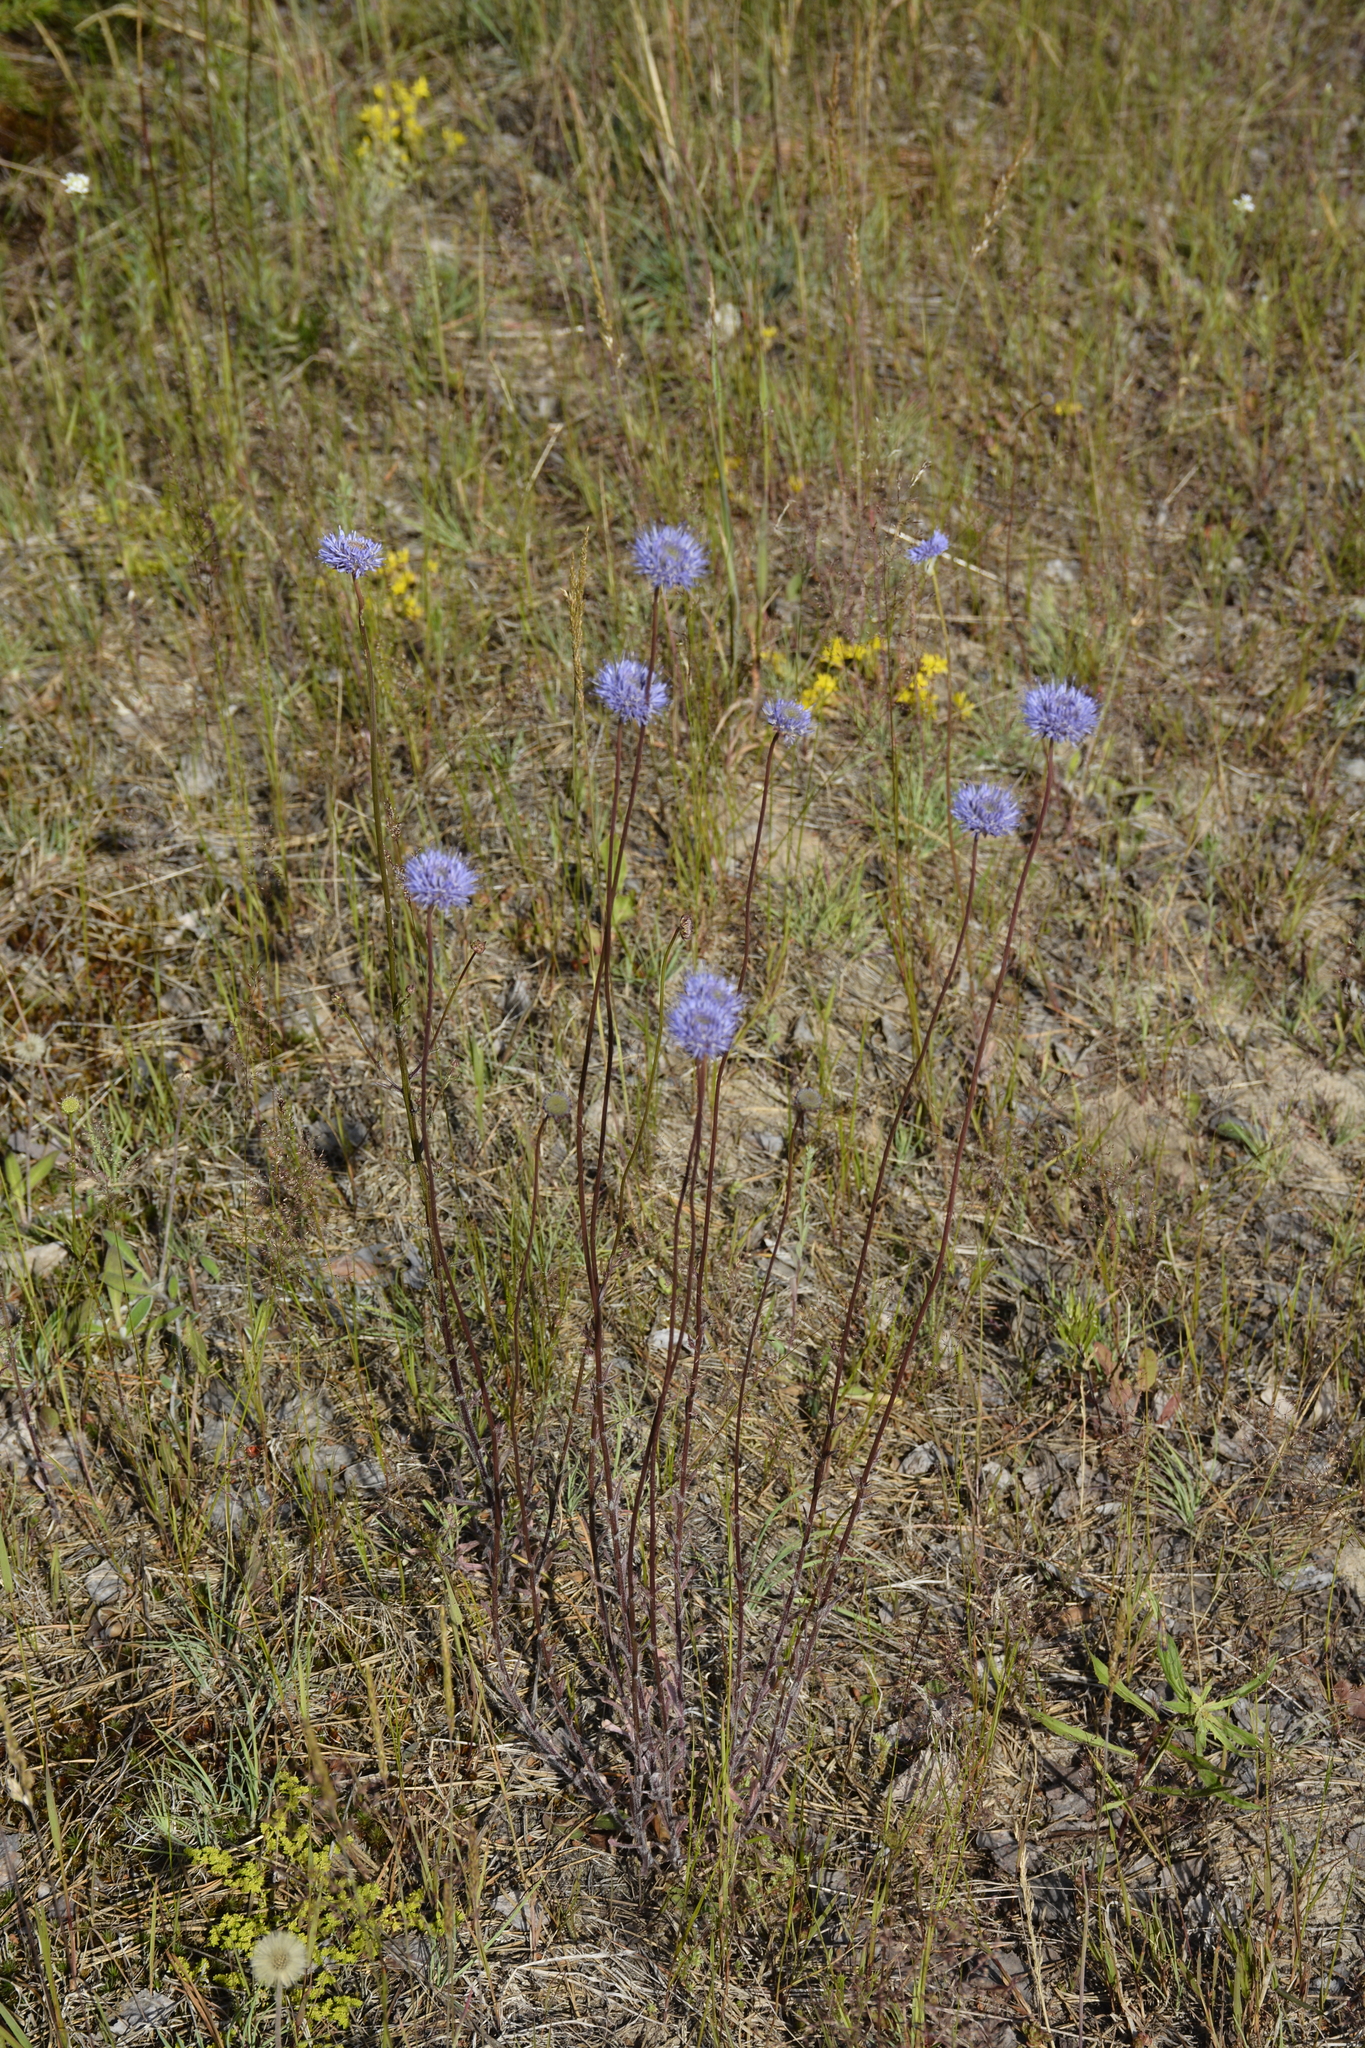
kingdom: Plantae
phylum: Tracheophyta
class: Magnoliopsida
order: Asterales
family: Campanulaceae
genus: Jasione
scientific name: Jasione montana
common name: Sheep's-bit
